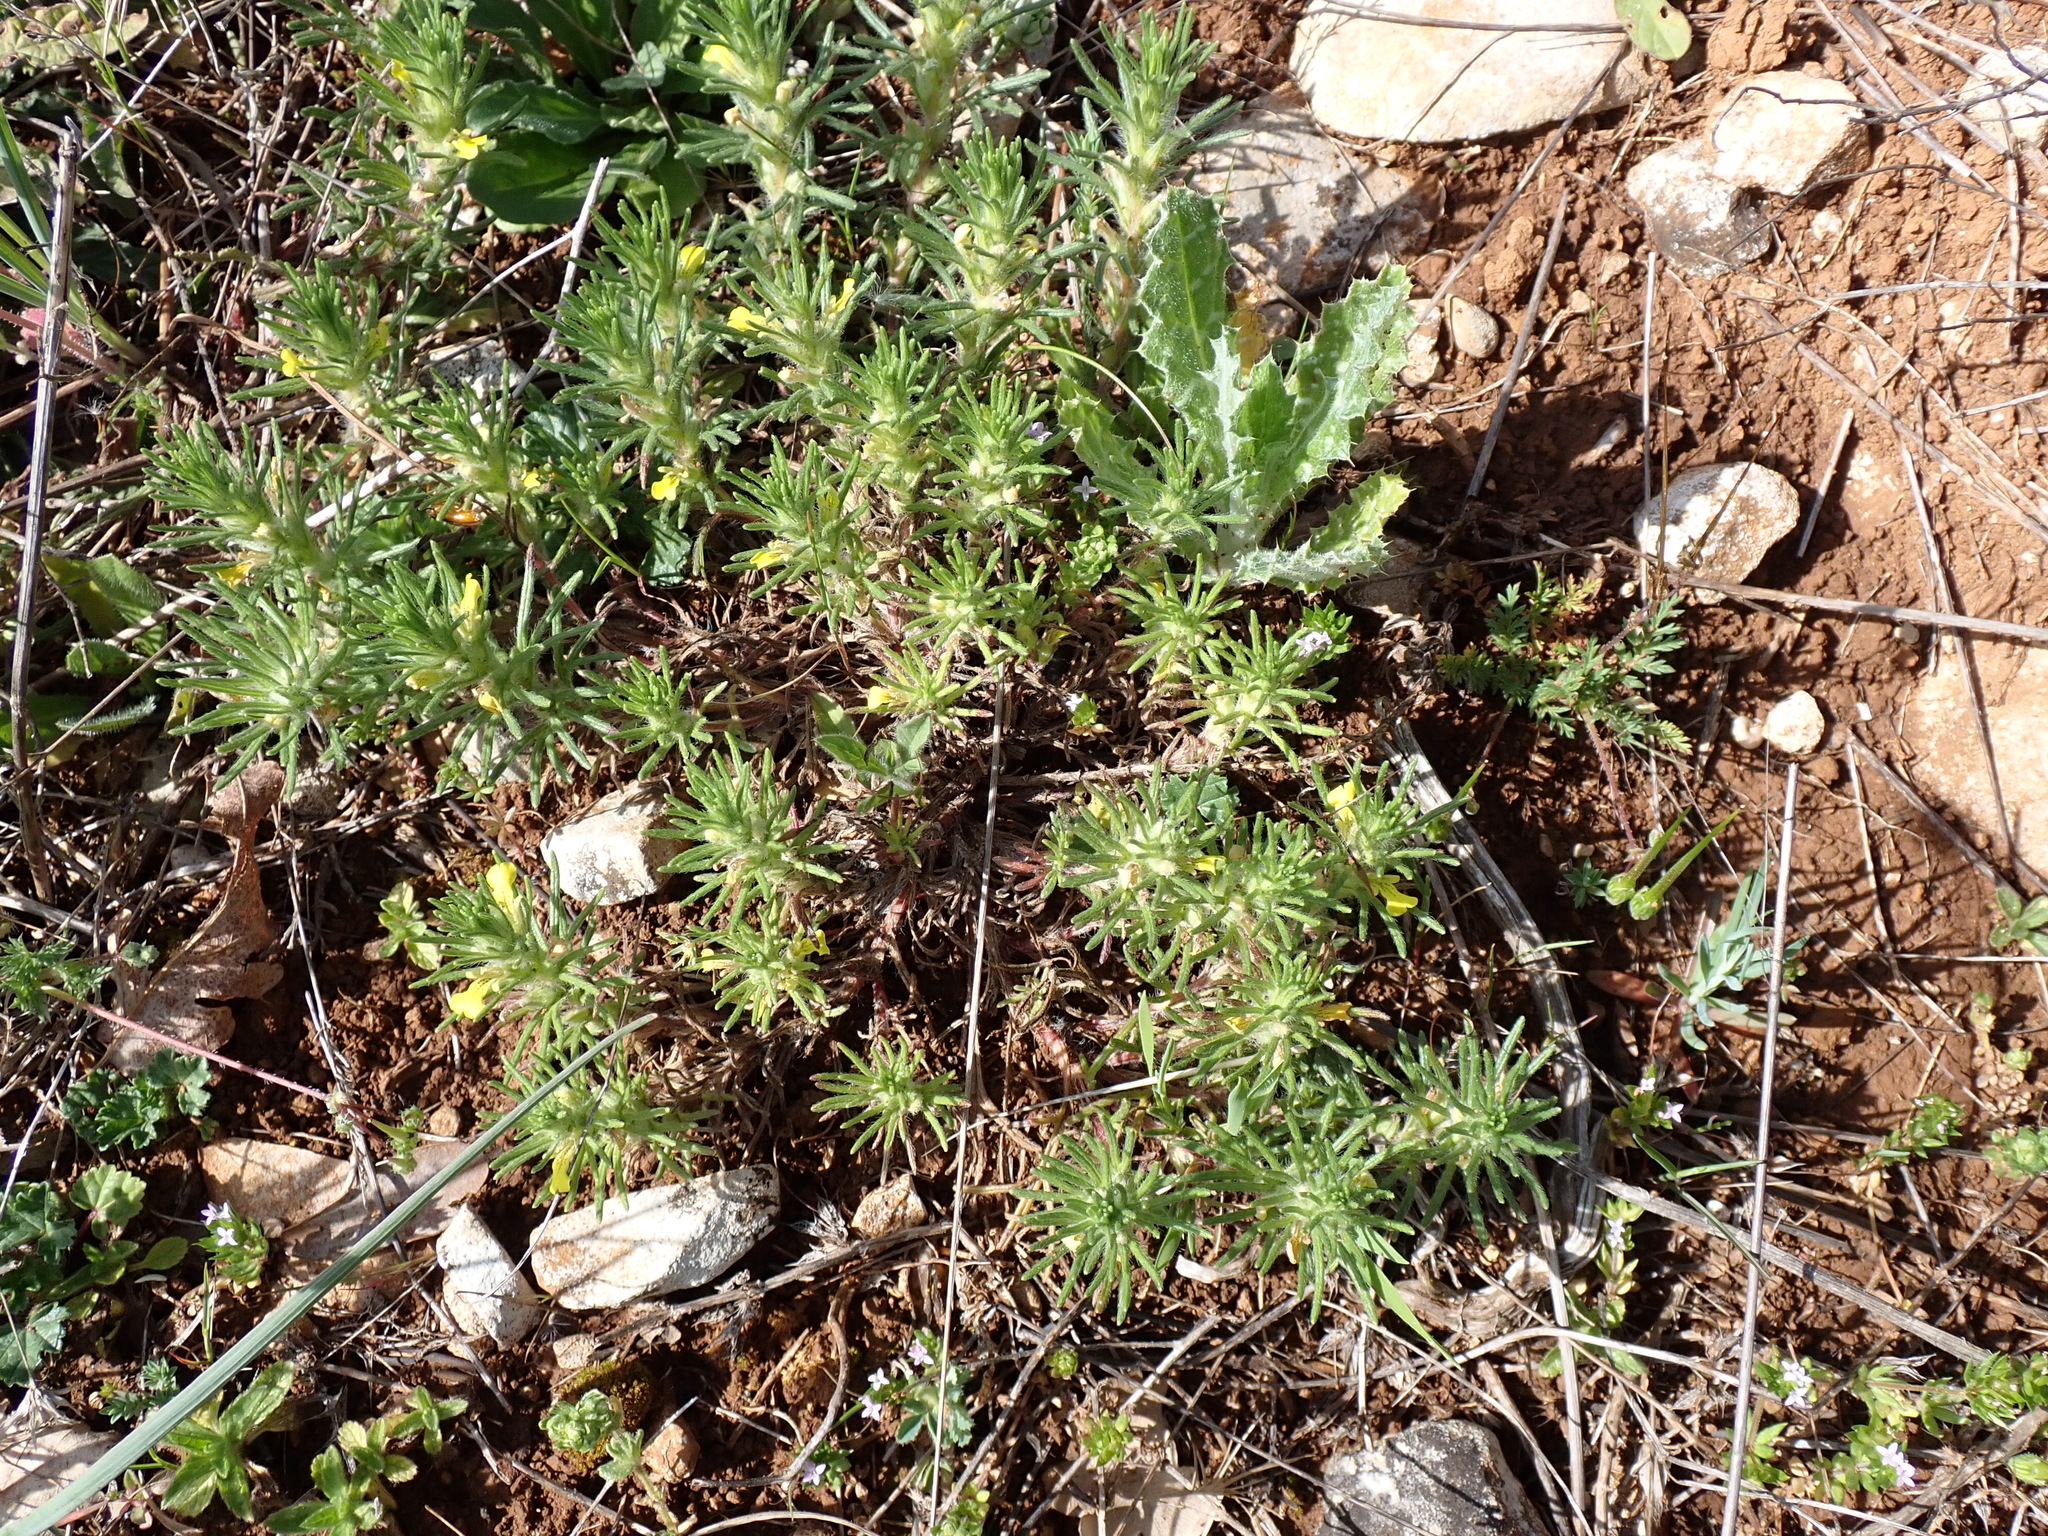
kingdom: Plantae
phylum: Tracheophyta
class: Magnoliopsida
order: Lamiales
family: Lamiaceae
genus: Ajuga
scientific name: Ajuga chamaepitys
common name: Ground-pine
